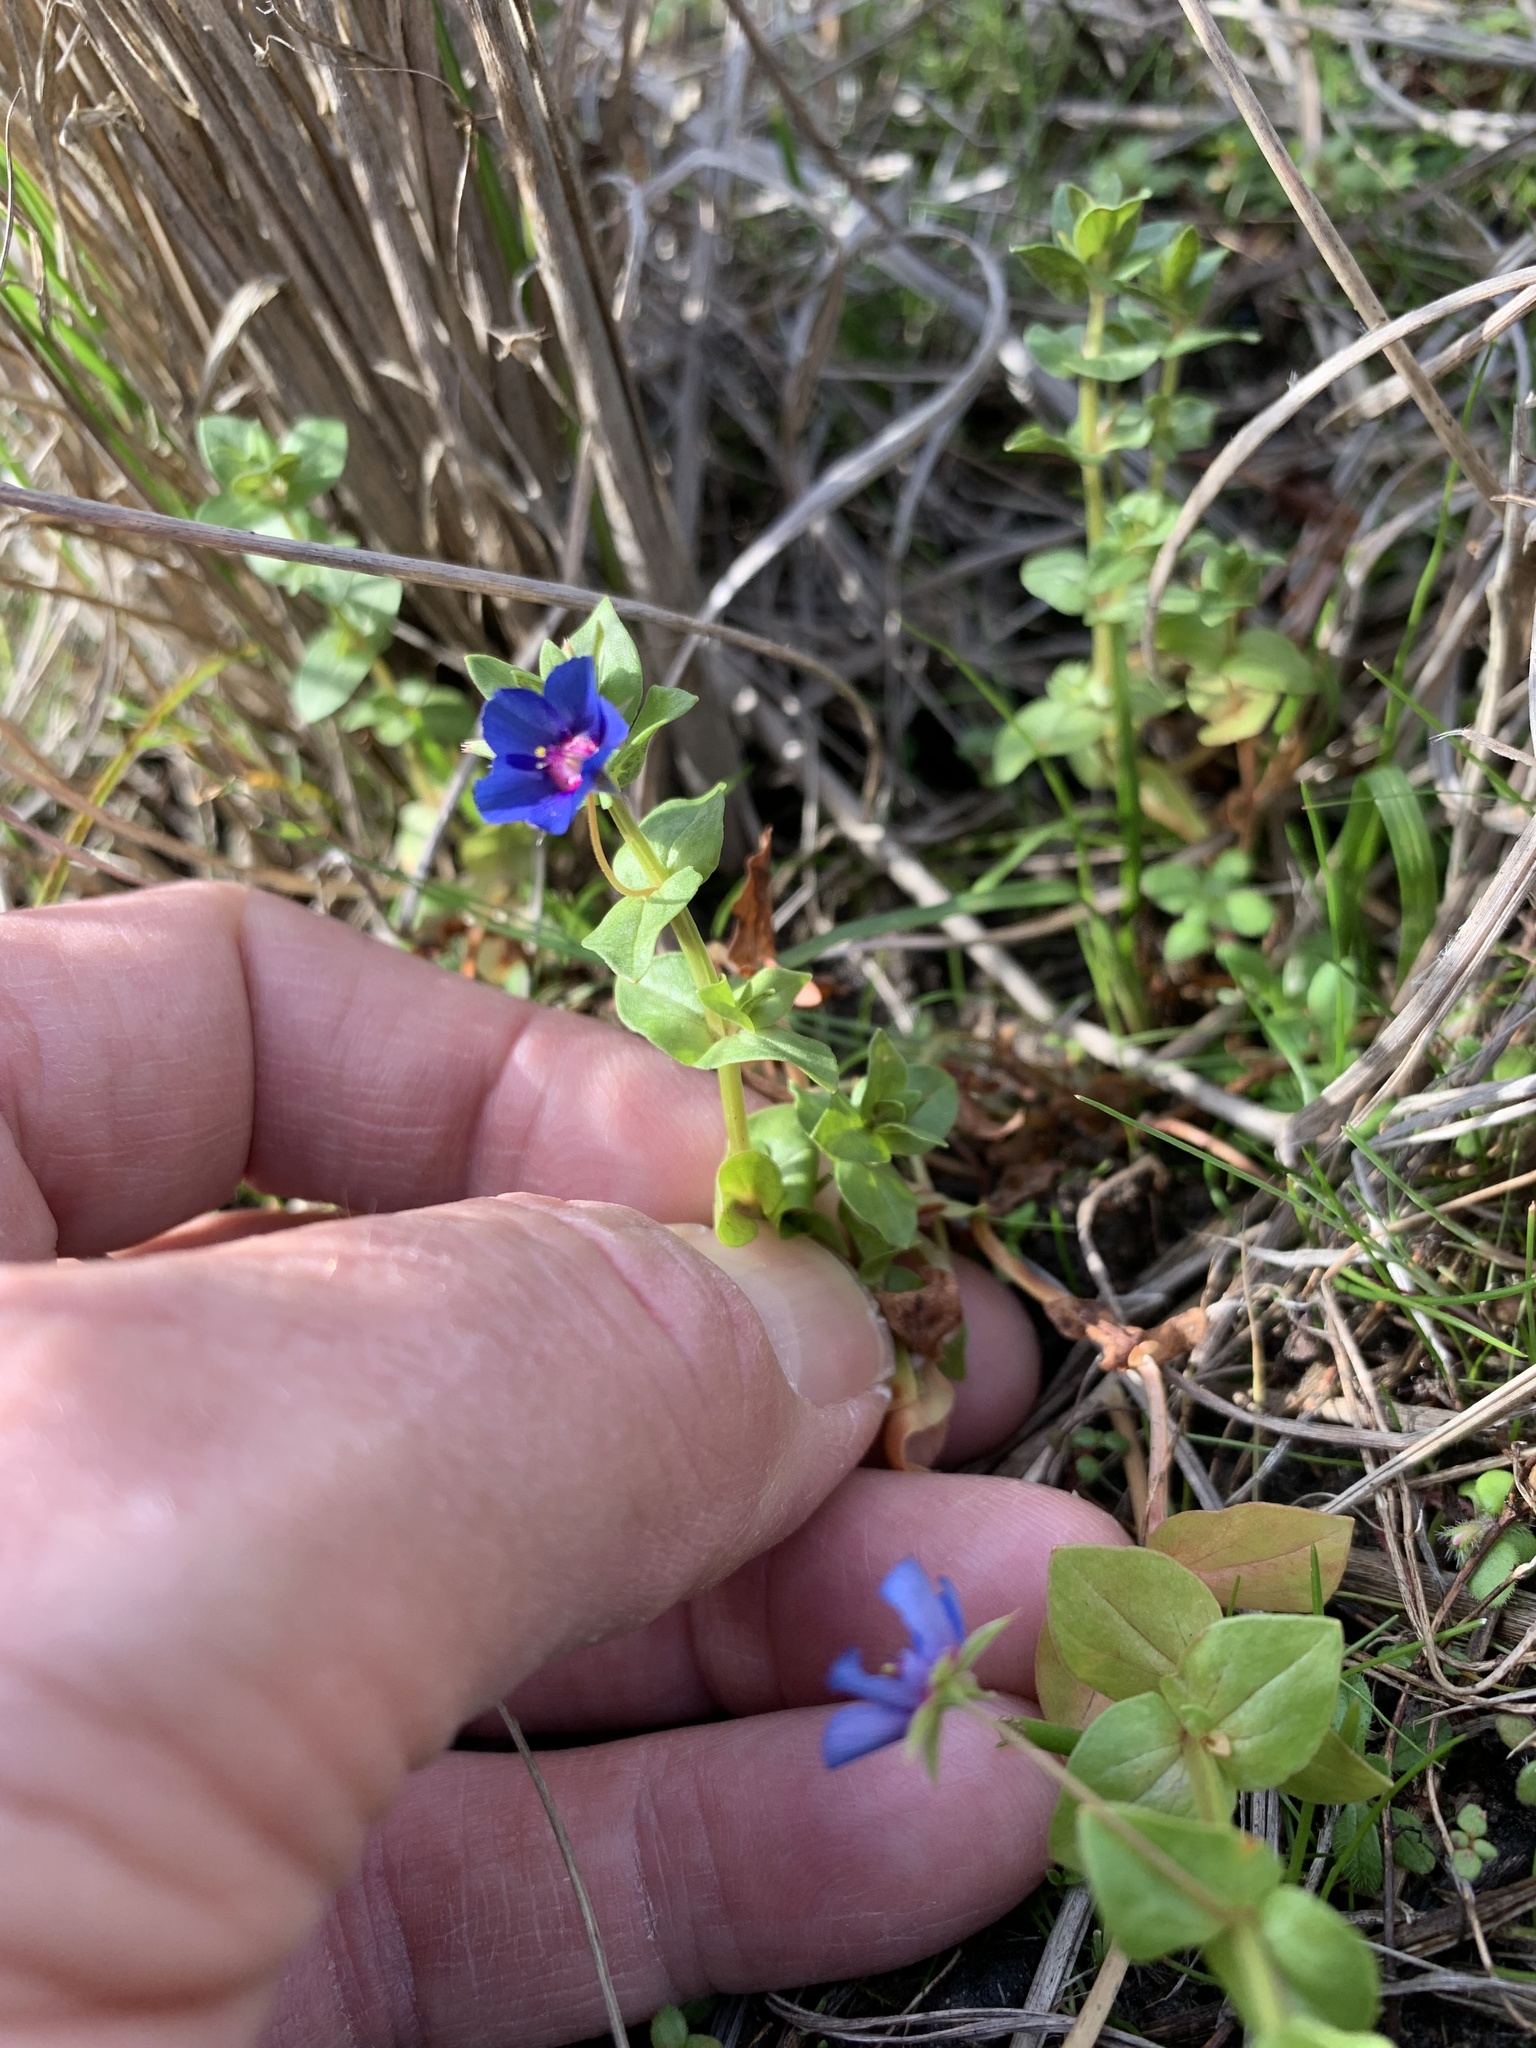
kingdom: Plantae
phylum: Tracheophyta
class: Magnoliopsida
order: Ericales
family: Primulaceae
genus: Lysimachia
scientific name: Lysimachia loeflingii
